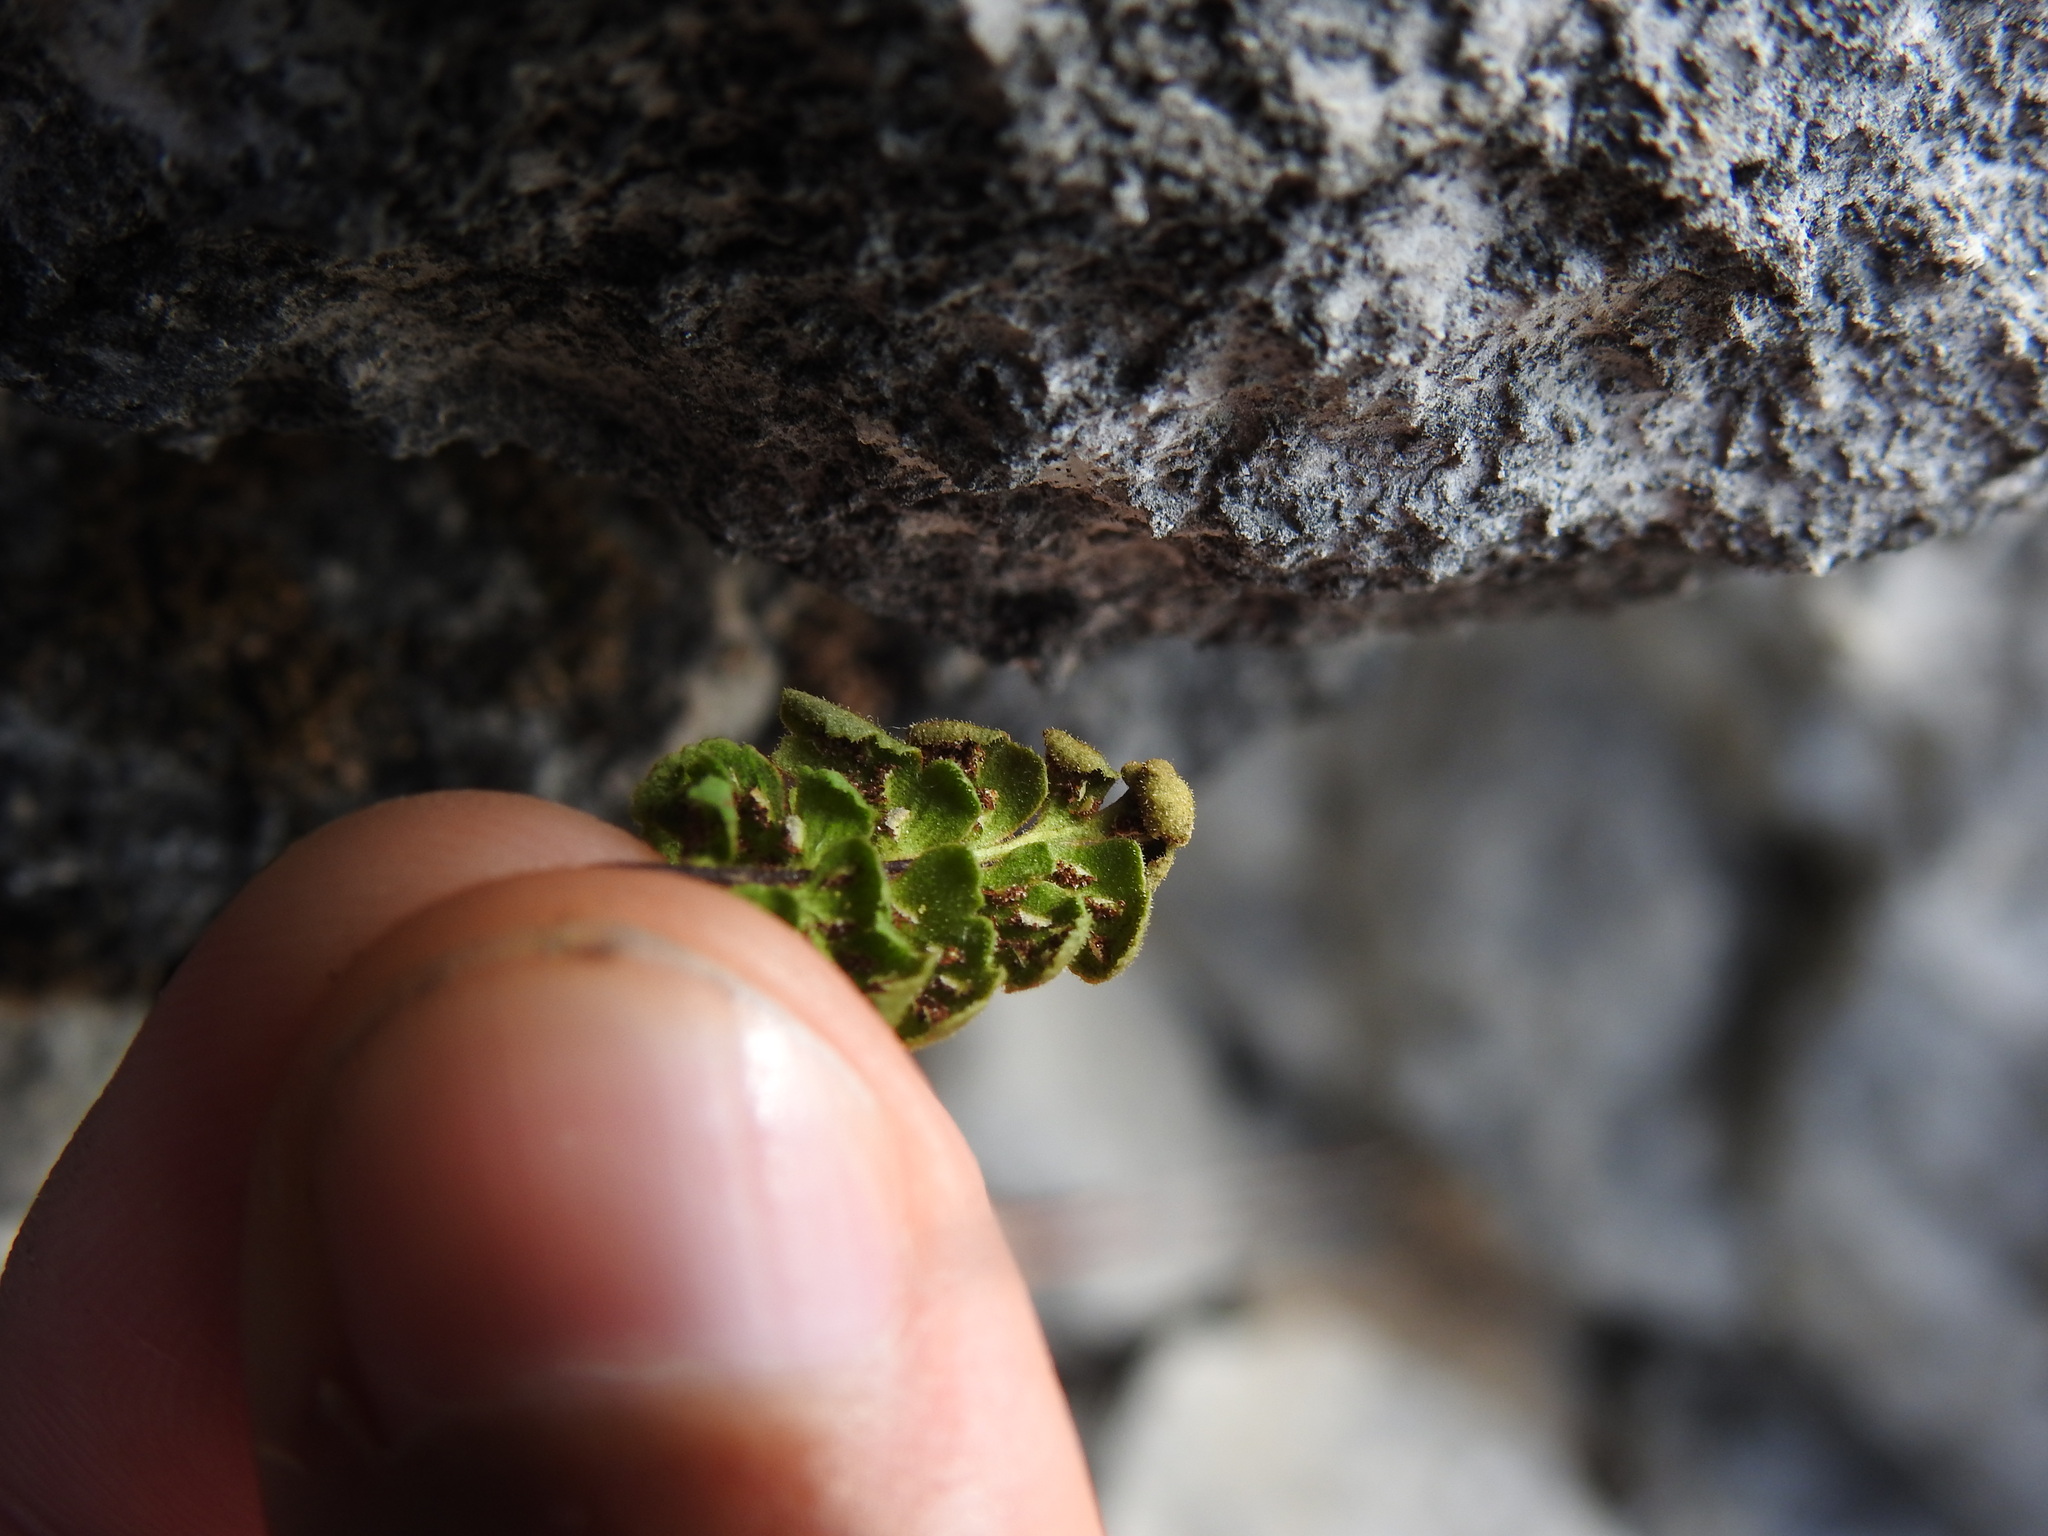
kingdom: Plantae
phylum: Tracheophyta
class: Polypodiopsida
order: Polypodiales
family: Aspleniaceae
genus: Asplenium
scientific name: Asplenium petrarchae
